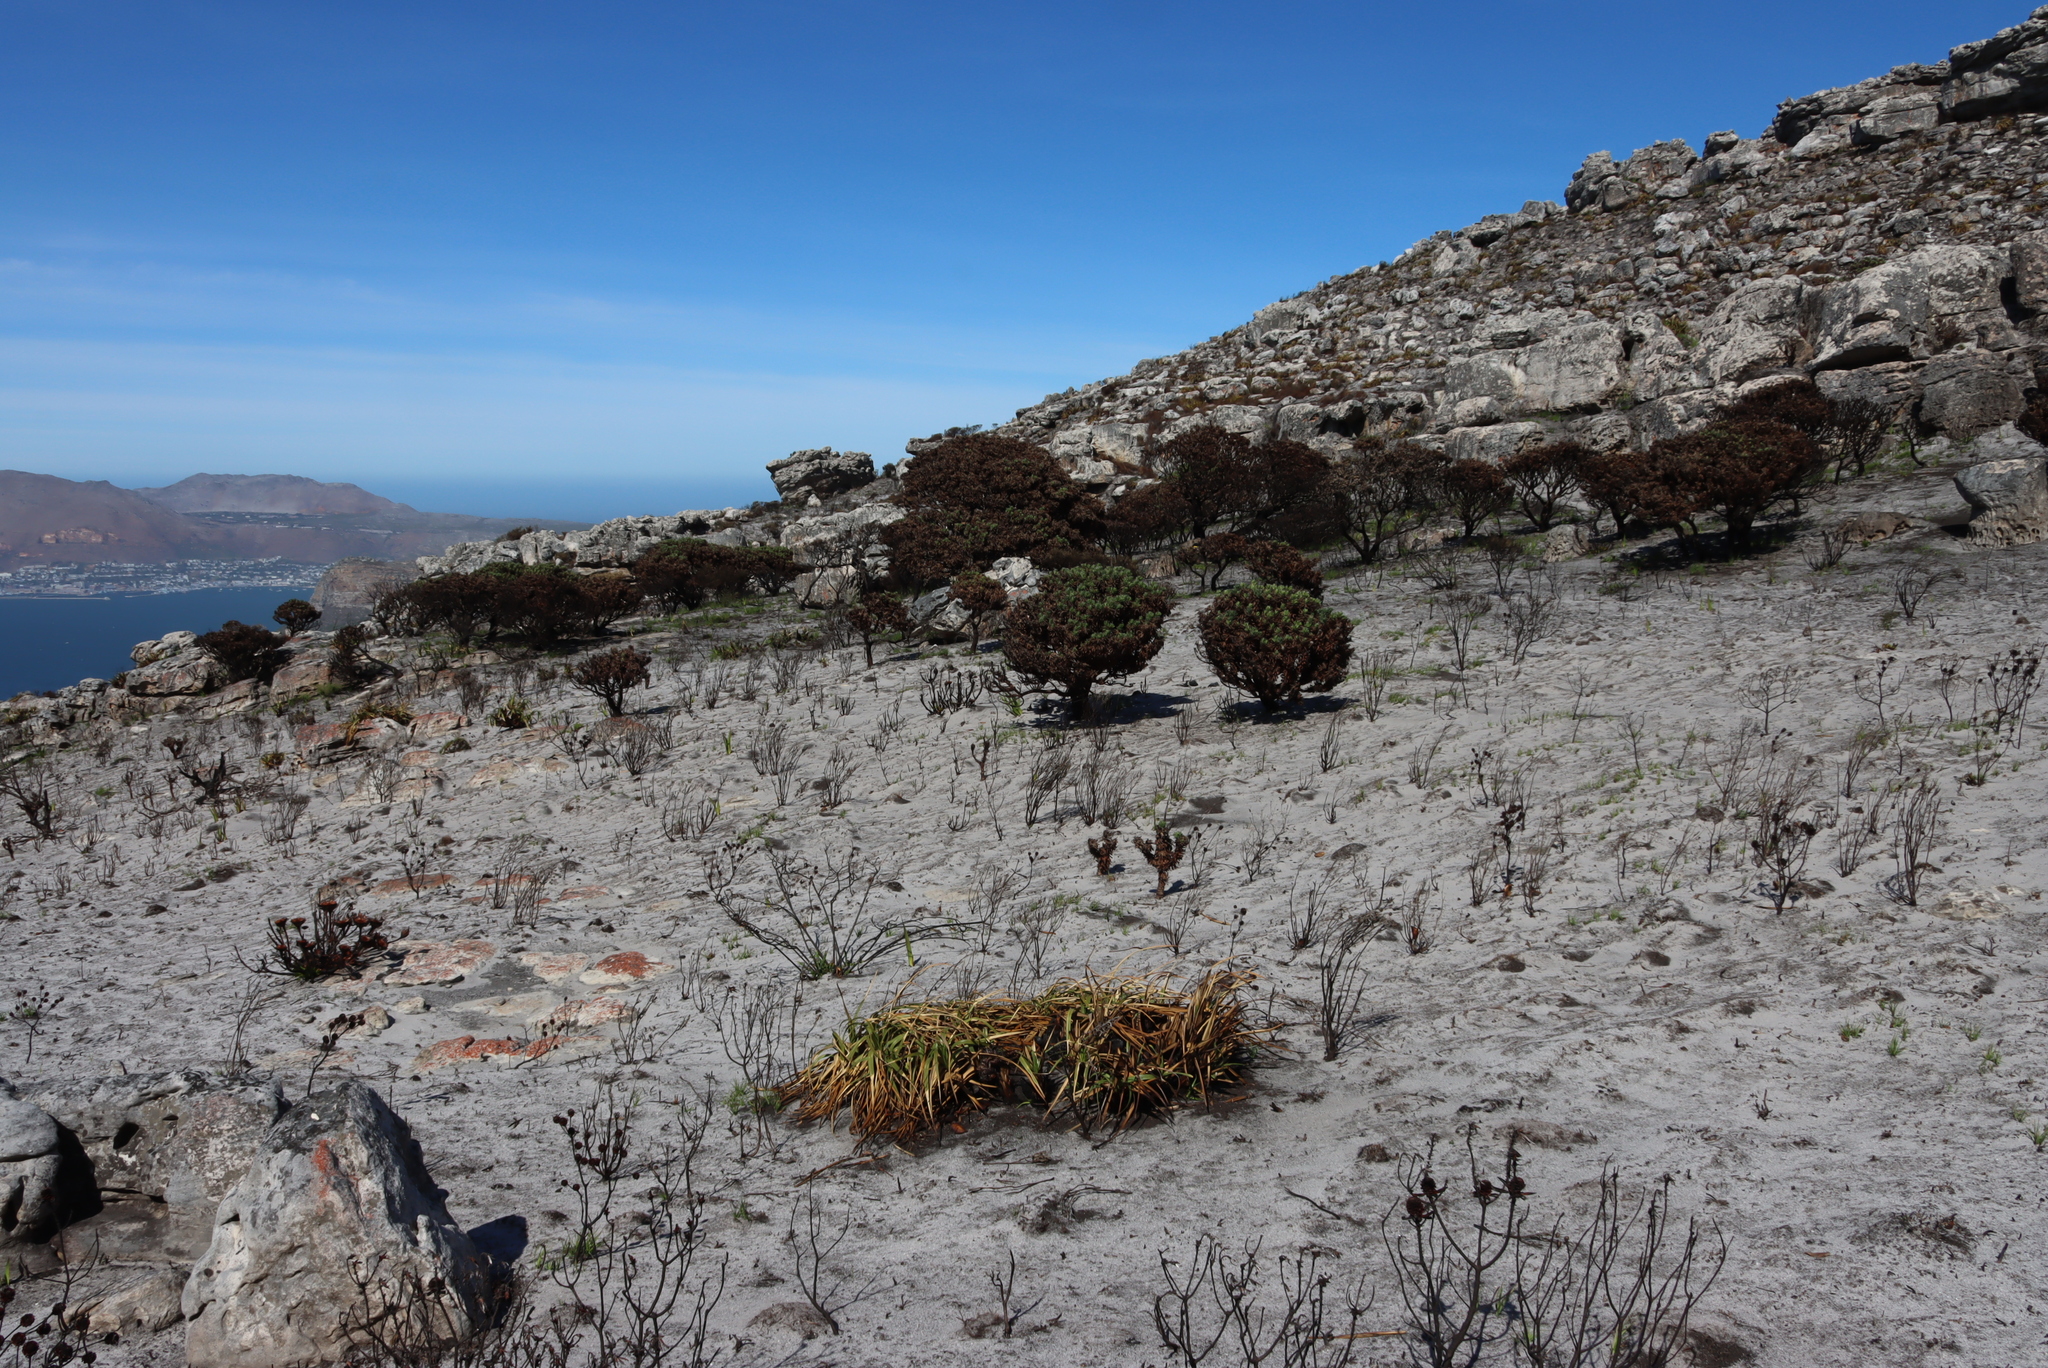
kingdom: Plantae
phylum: Tracheophyta
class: Magnoliopsida
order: Proteales
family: Proteaceae
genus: Mimetes
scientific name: Mimetes fimbriifolius
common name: Fringed bottlebrush
